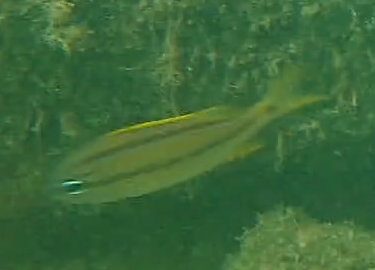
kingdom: Animalia
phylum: Chordata
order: Perciformes
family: Haemulidae
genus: Haemulon
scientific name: Haemulon flavolineatum
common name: French grunt
